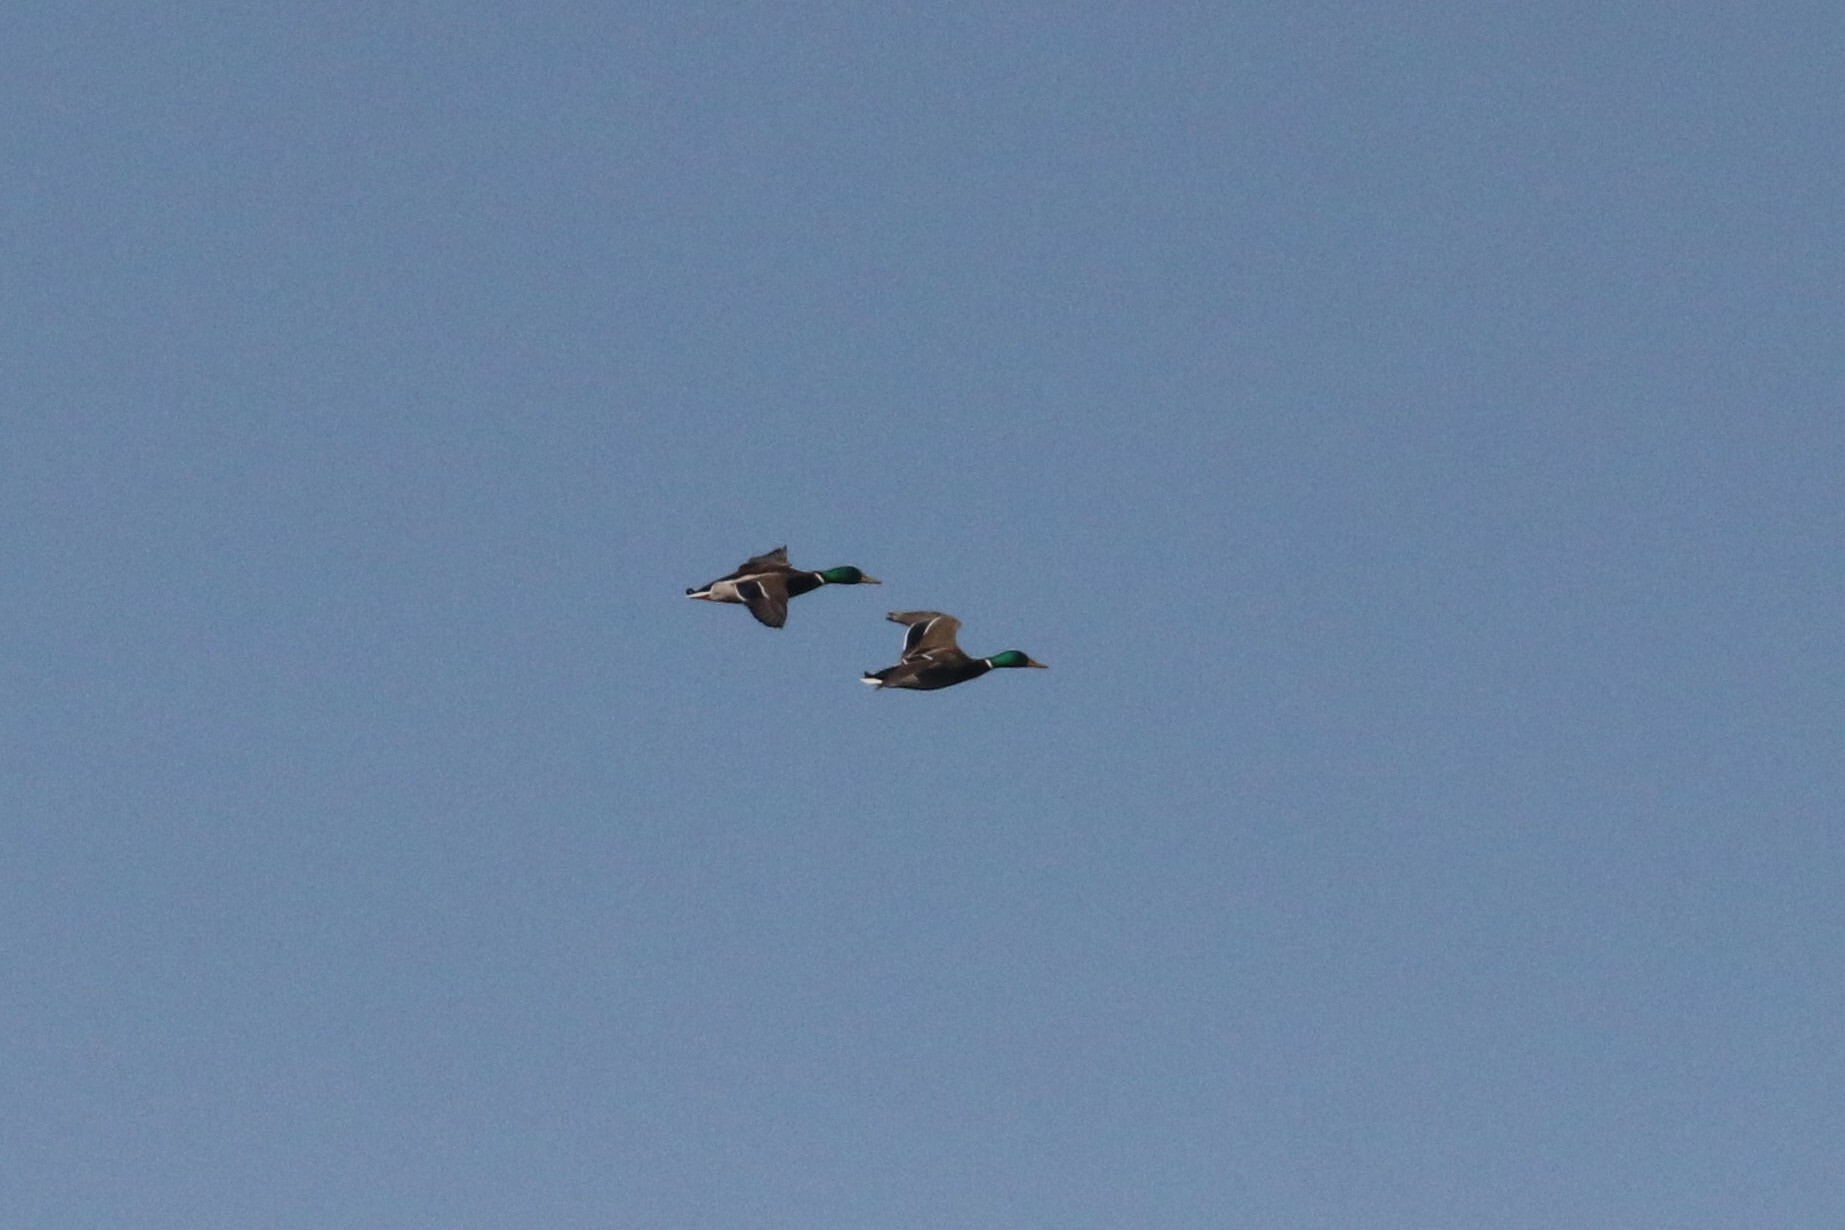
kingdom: Animalia
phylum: Chordata
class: Aves
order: Anseriformes
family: Anatidae
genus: Anas
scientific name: Anas platyrhynchos
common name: Mallard
